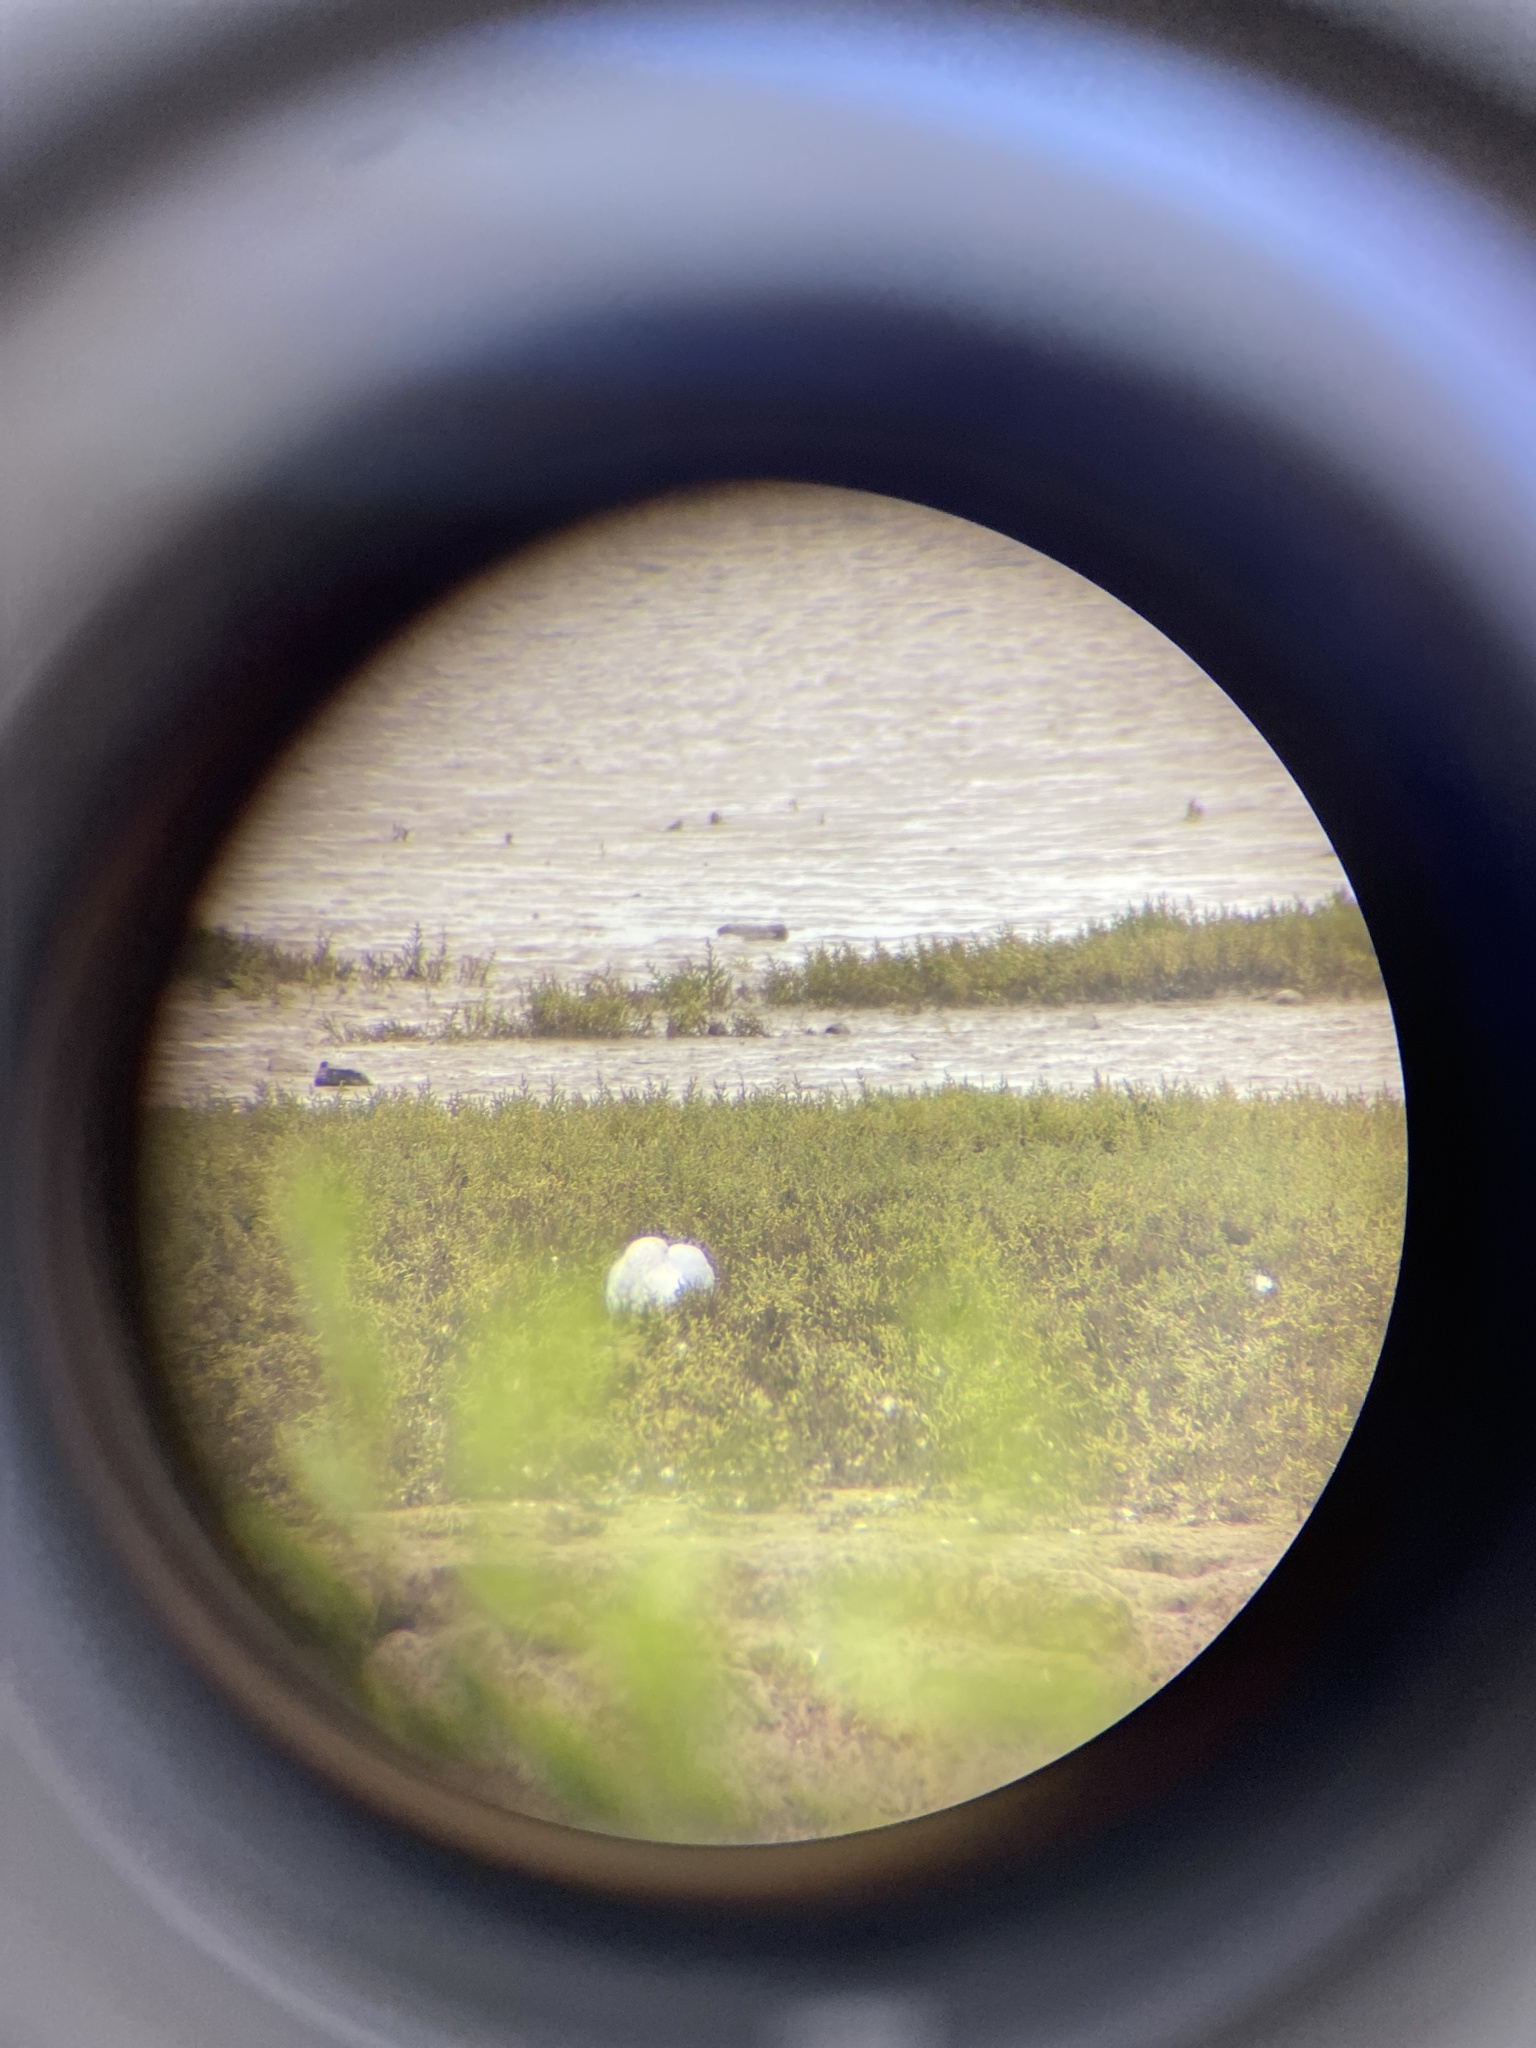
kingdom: Animalia
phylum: Chordata
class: Aves
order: Anseriformes
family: Anatidae
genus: Cygnus
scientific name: Cygnus olor
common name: Mute swan
